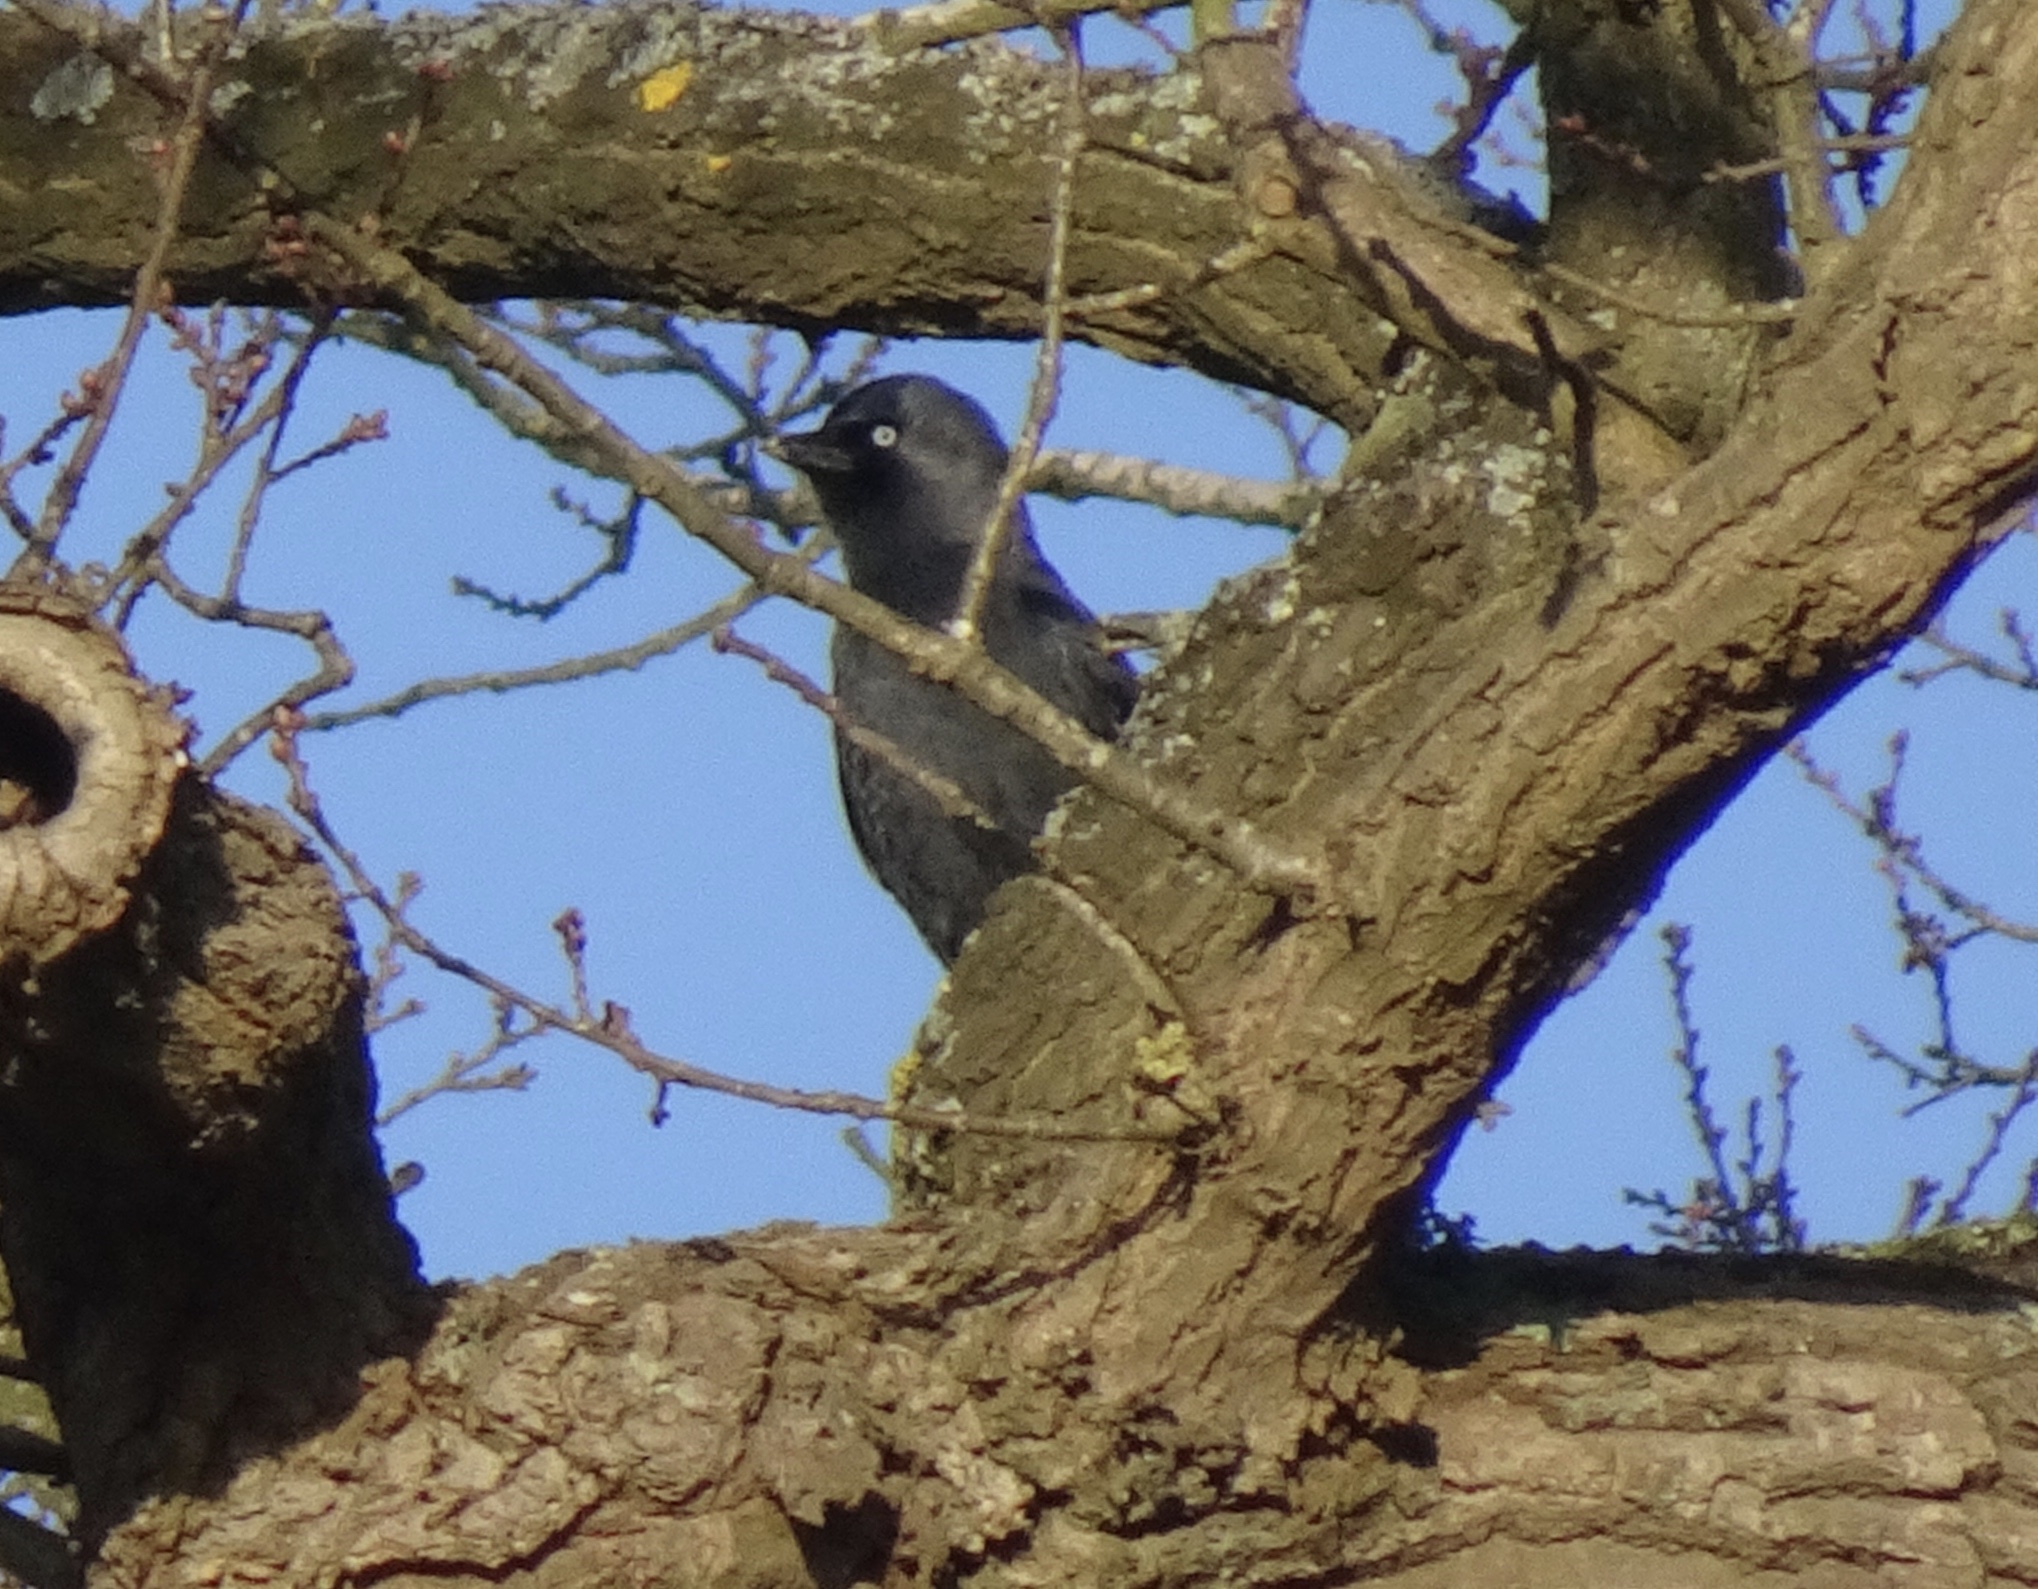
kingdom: Animalia
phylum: Chordata
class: Aves
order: Passeriformes
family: Corvidae
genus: Coloeus
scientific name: Coloeus monedula
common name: Western jackdaw
